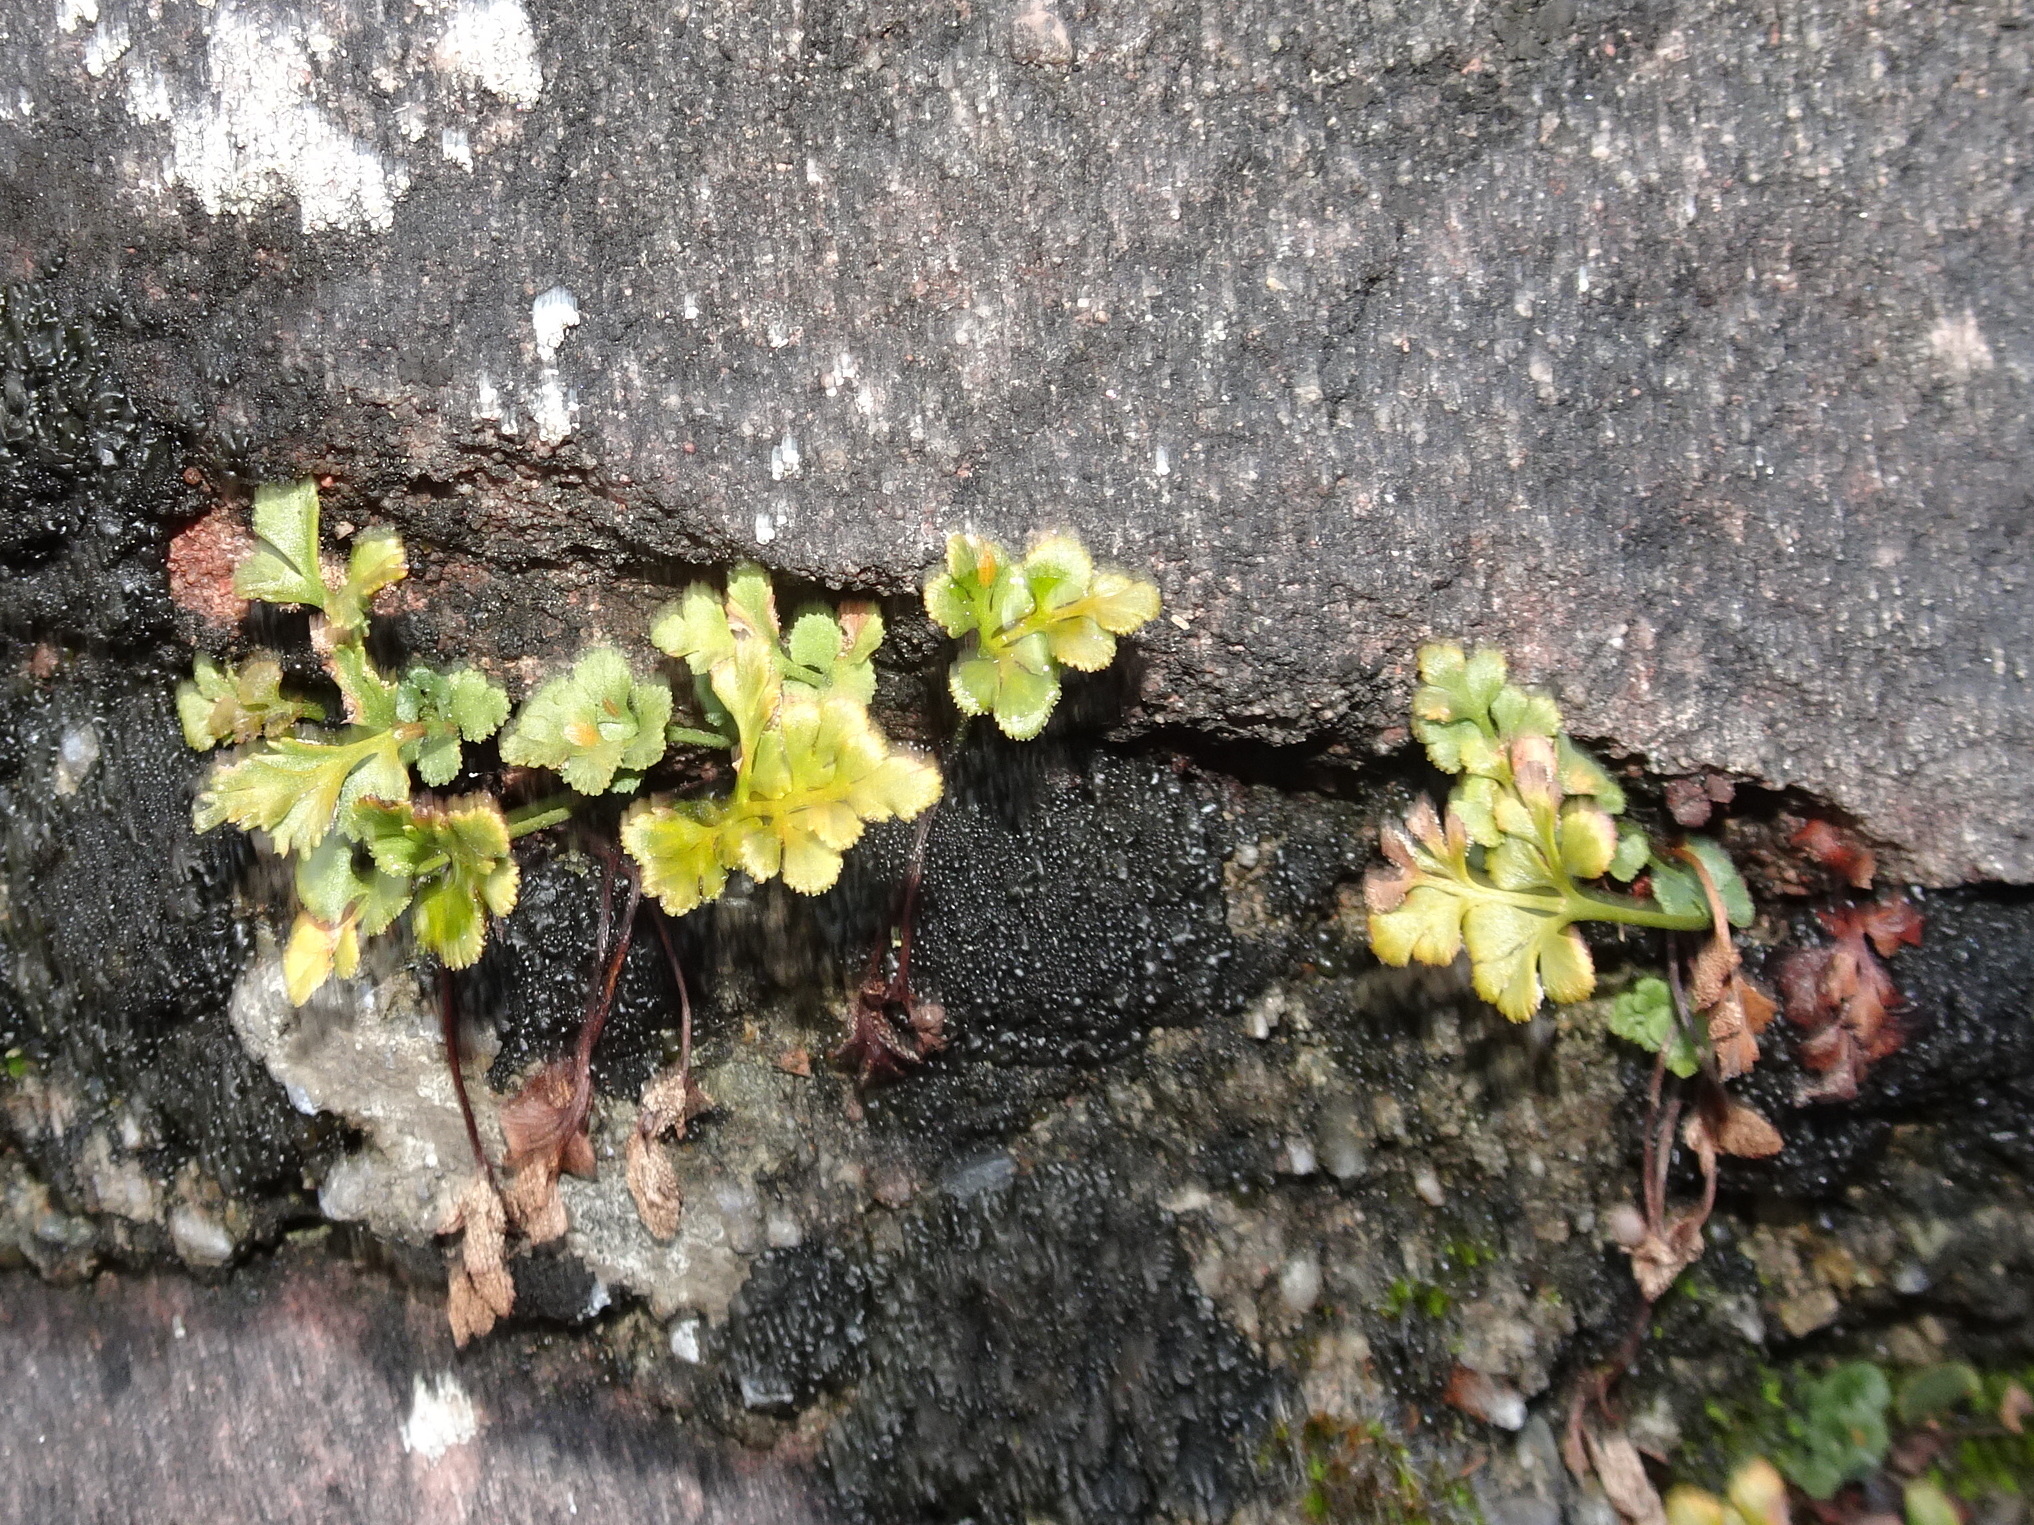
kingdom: Plantae
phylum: Tracheophyta
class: Polypodiopsida
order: Polypodiales
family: Aspleniaceae
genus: Asplenium
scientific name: Asplenium ruta-muraria
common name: Wall-rue
